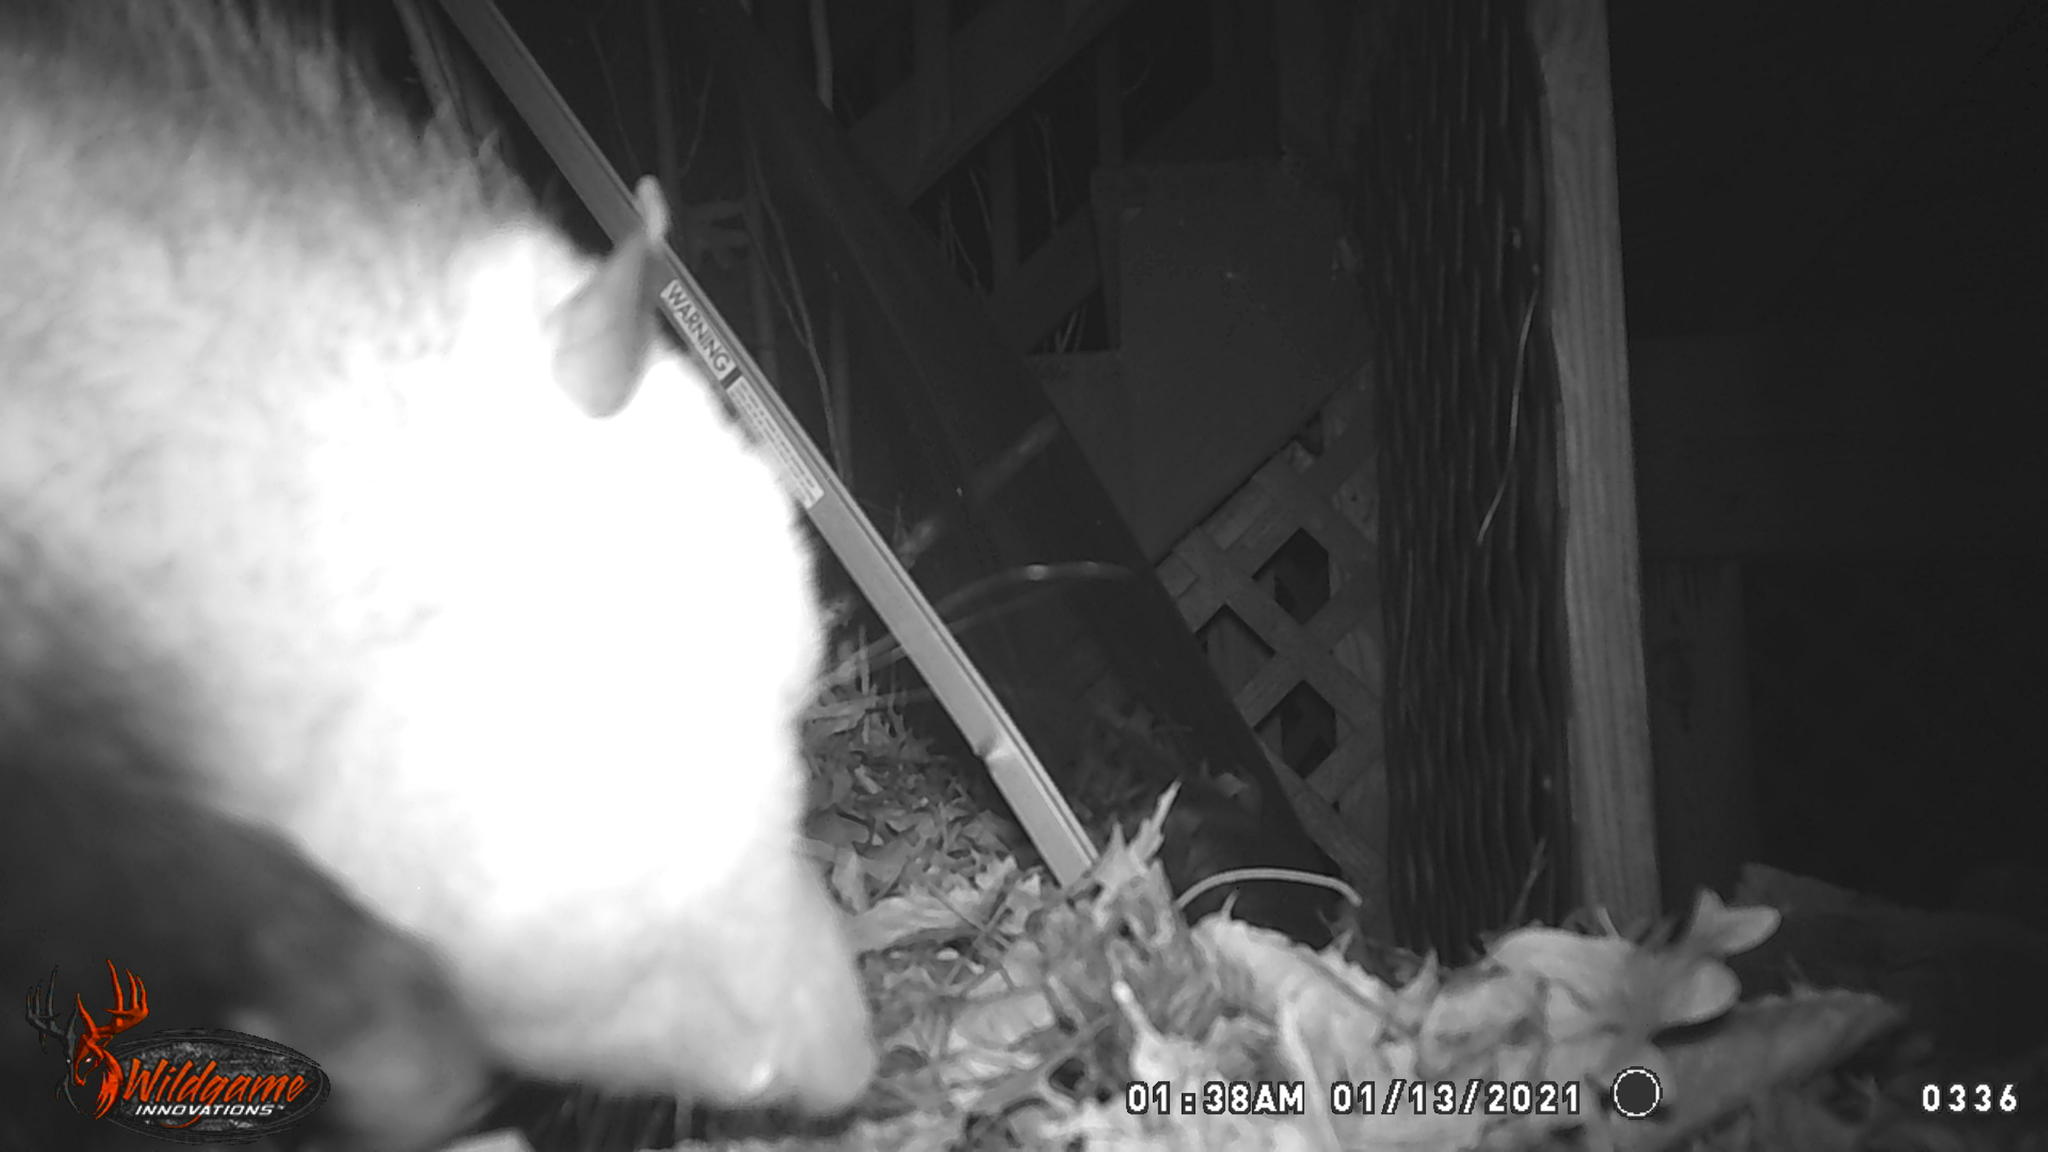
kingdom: Animalia
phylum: Chordata
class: Mammalia
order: Didelphimorphia
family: Didelphidae
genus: Didelphis
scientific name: Didelphis virginiana
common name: Virginia opossum
